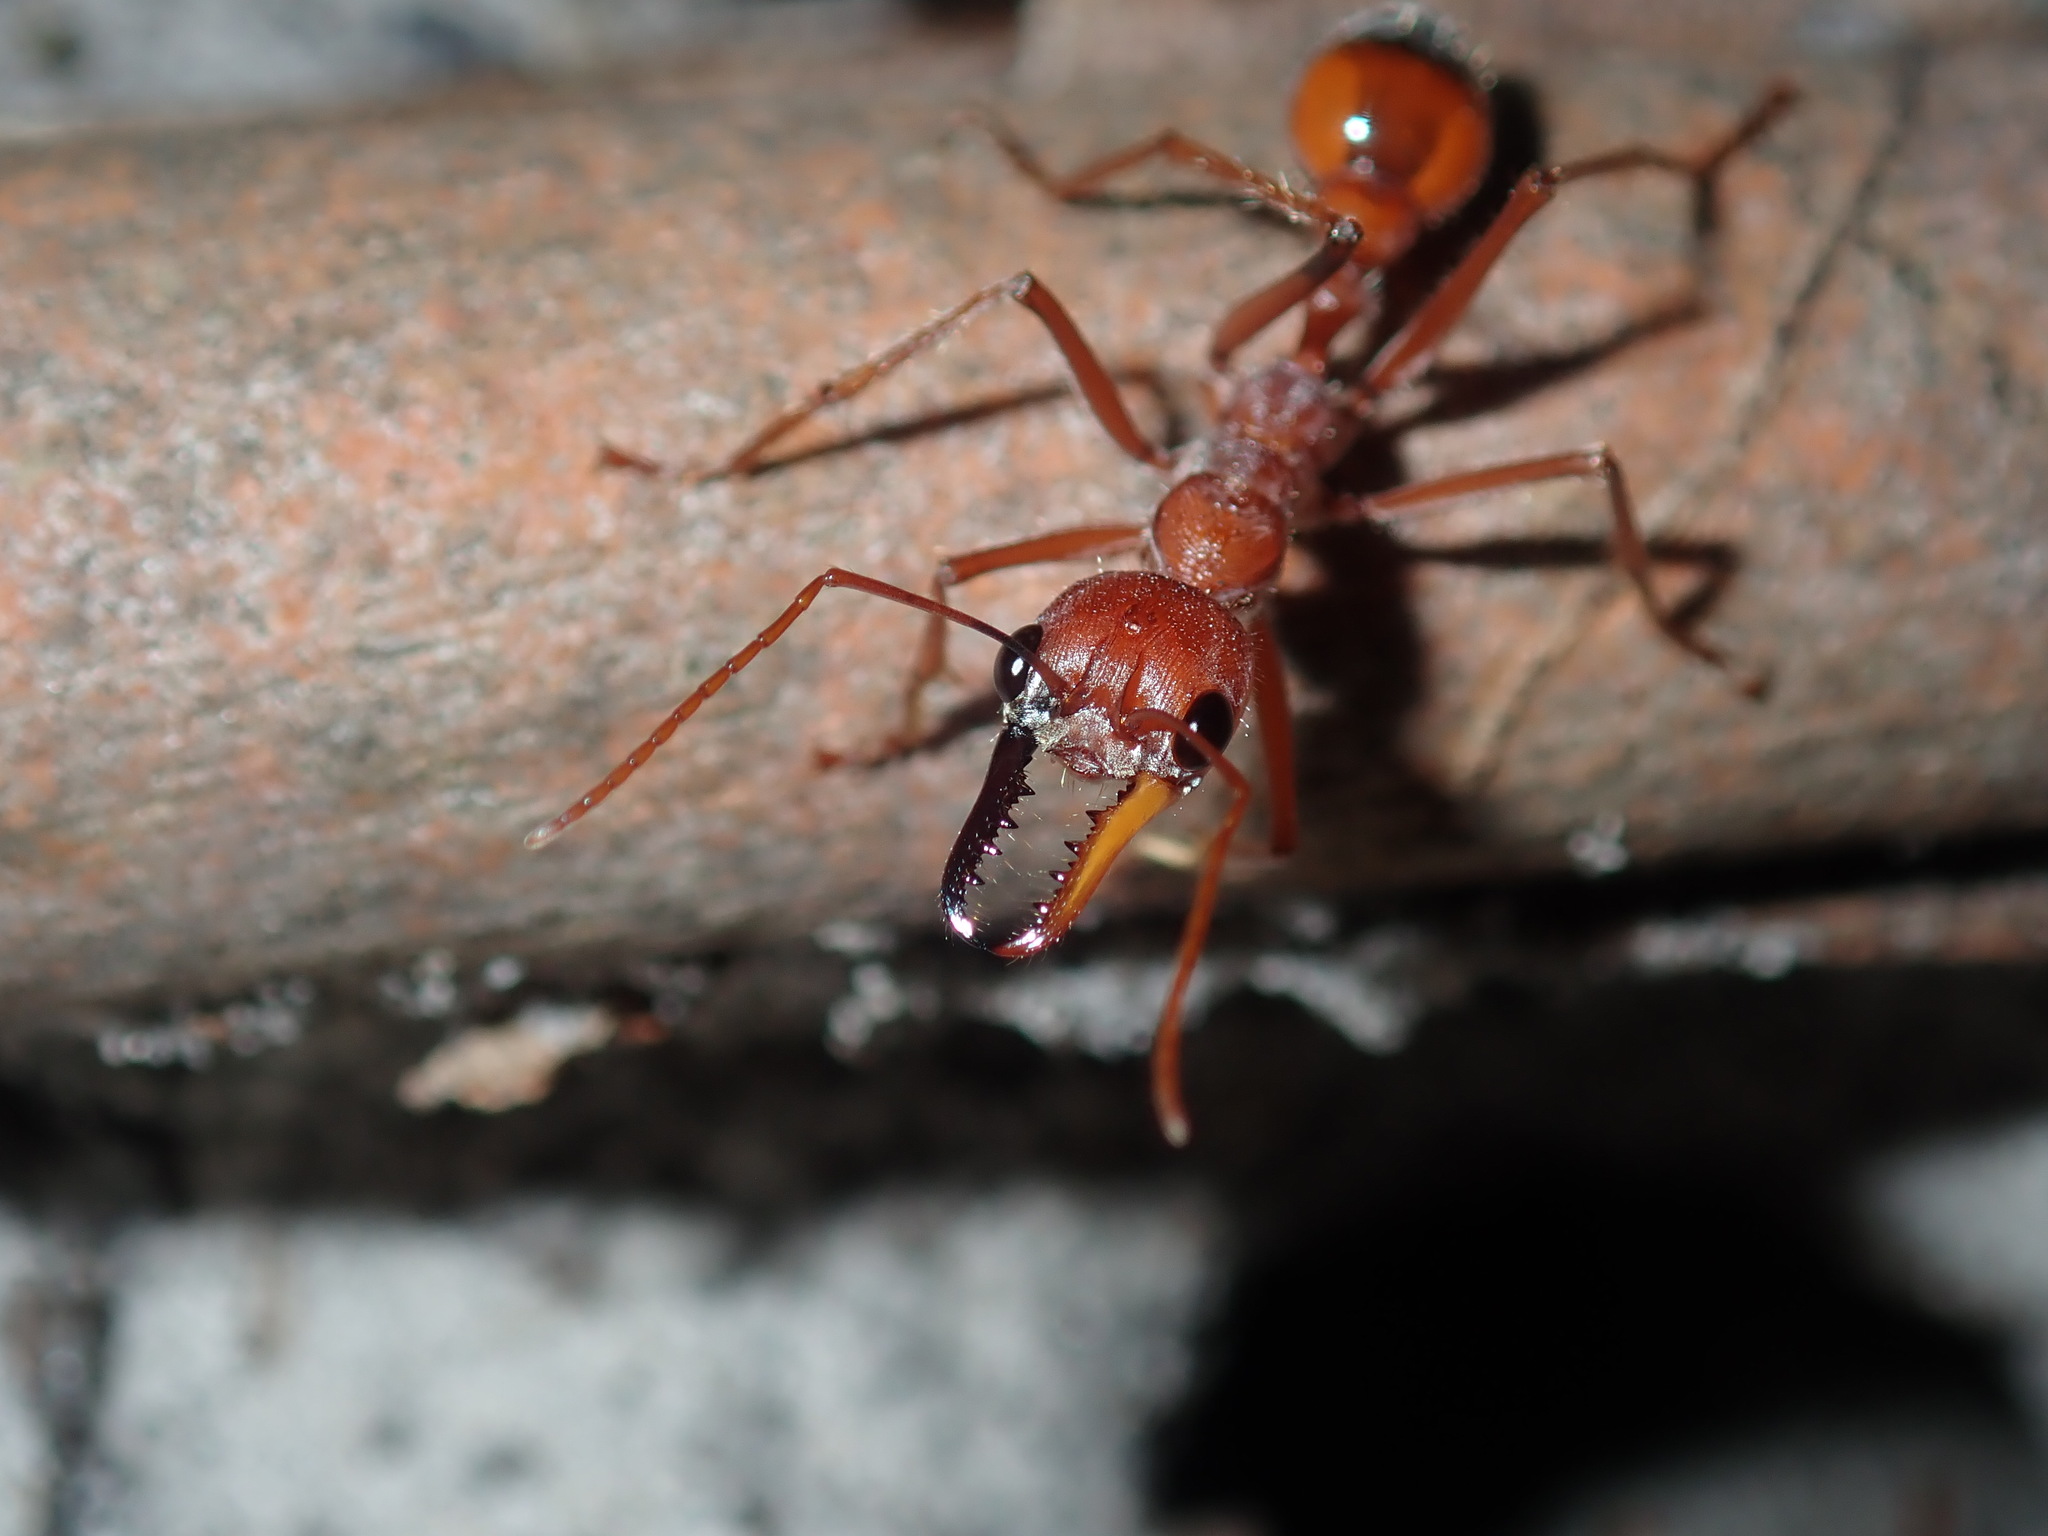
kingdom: Animalia
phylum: Arthropoda
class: Insecta
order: Hymenoptera
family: Formicidae
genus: Myrmecia
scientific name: Myrmecia gulosa
